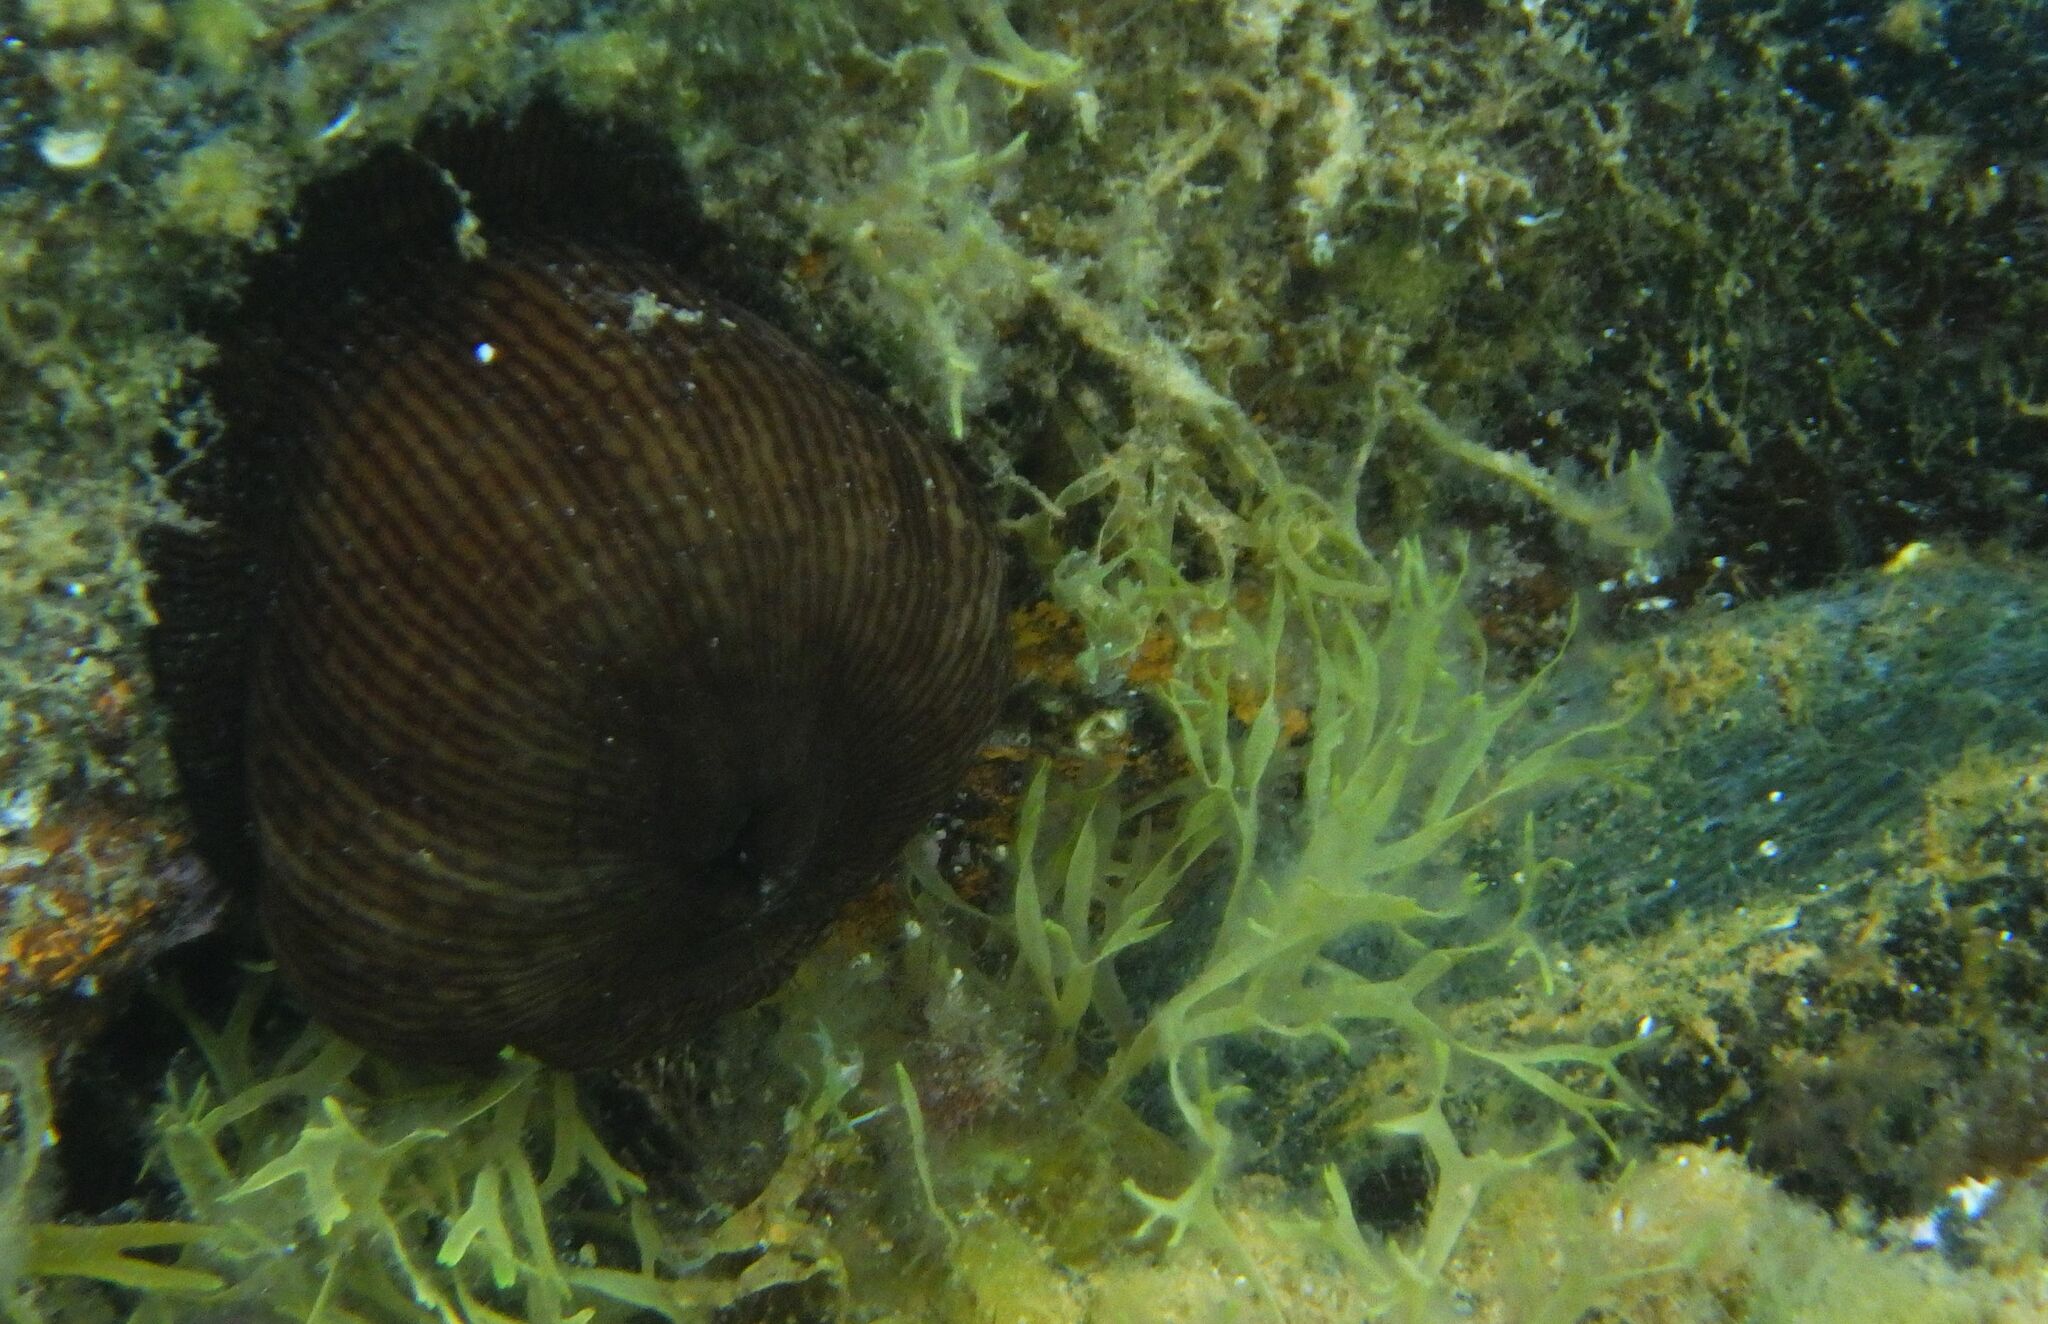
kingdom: Animalia
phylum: Cnidaria
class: Anthozoa
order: Actiniaria
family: Actiniidae
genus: Actinia
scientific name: Actinia striata
